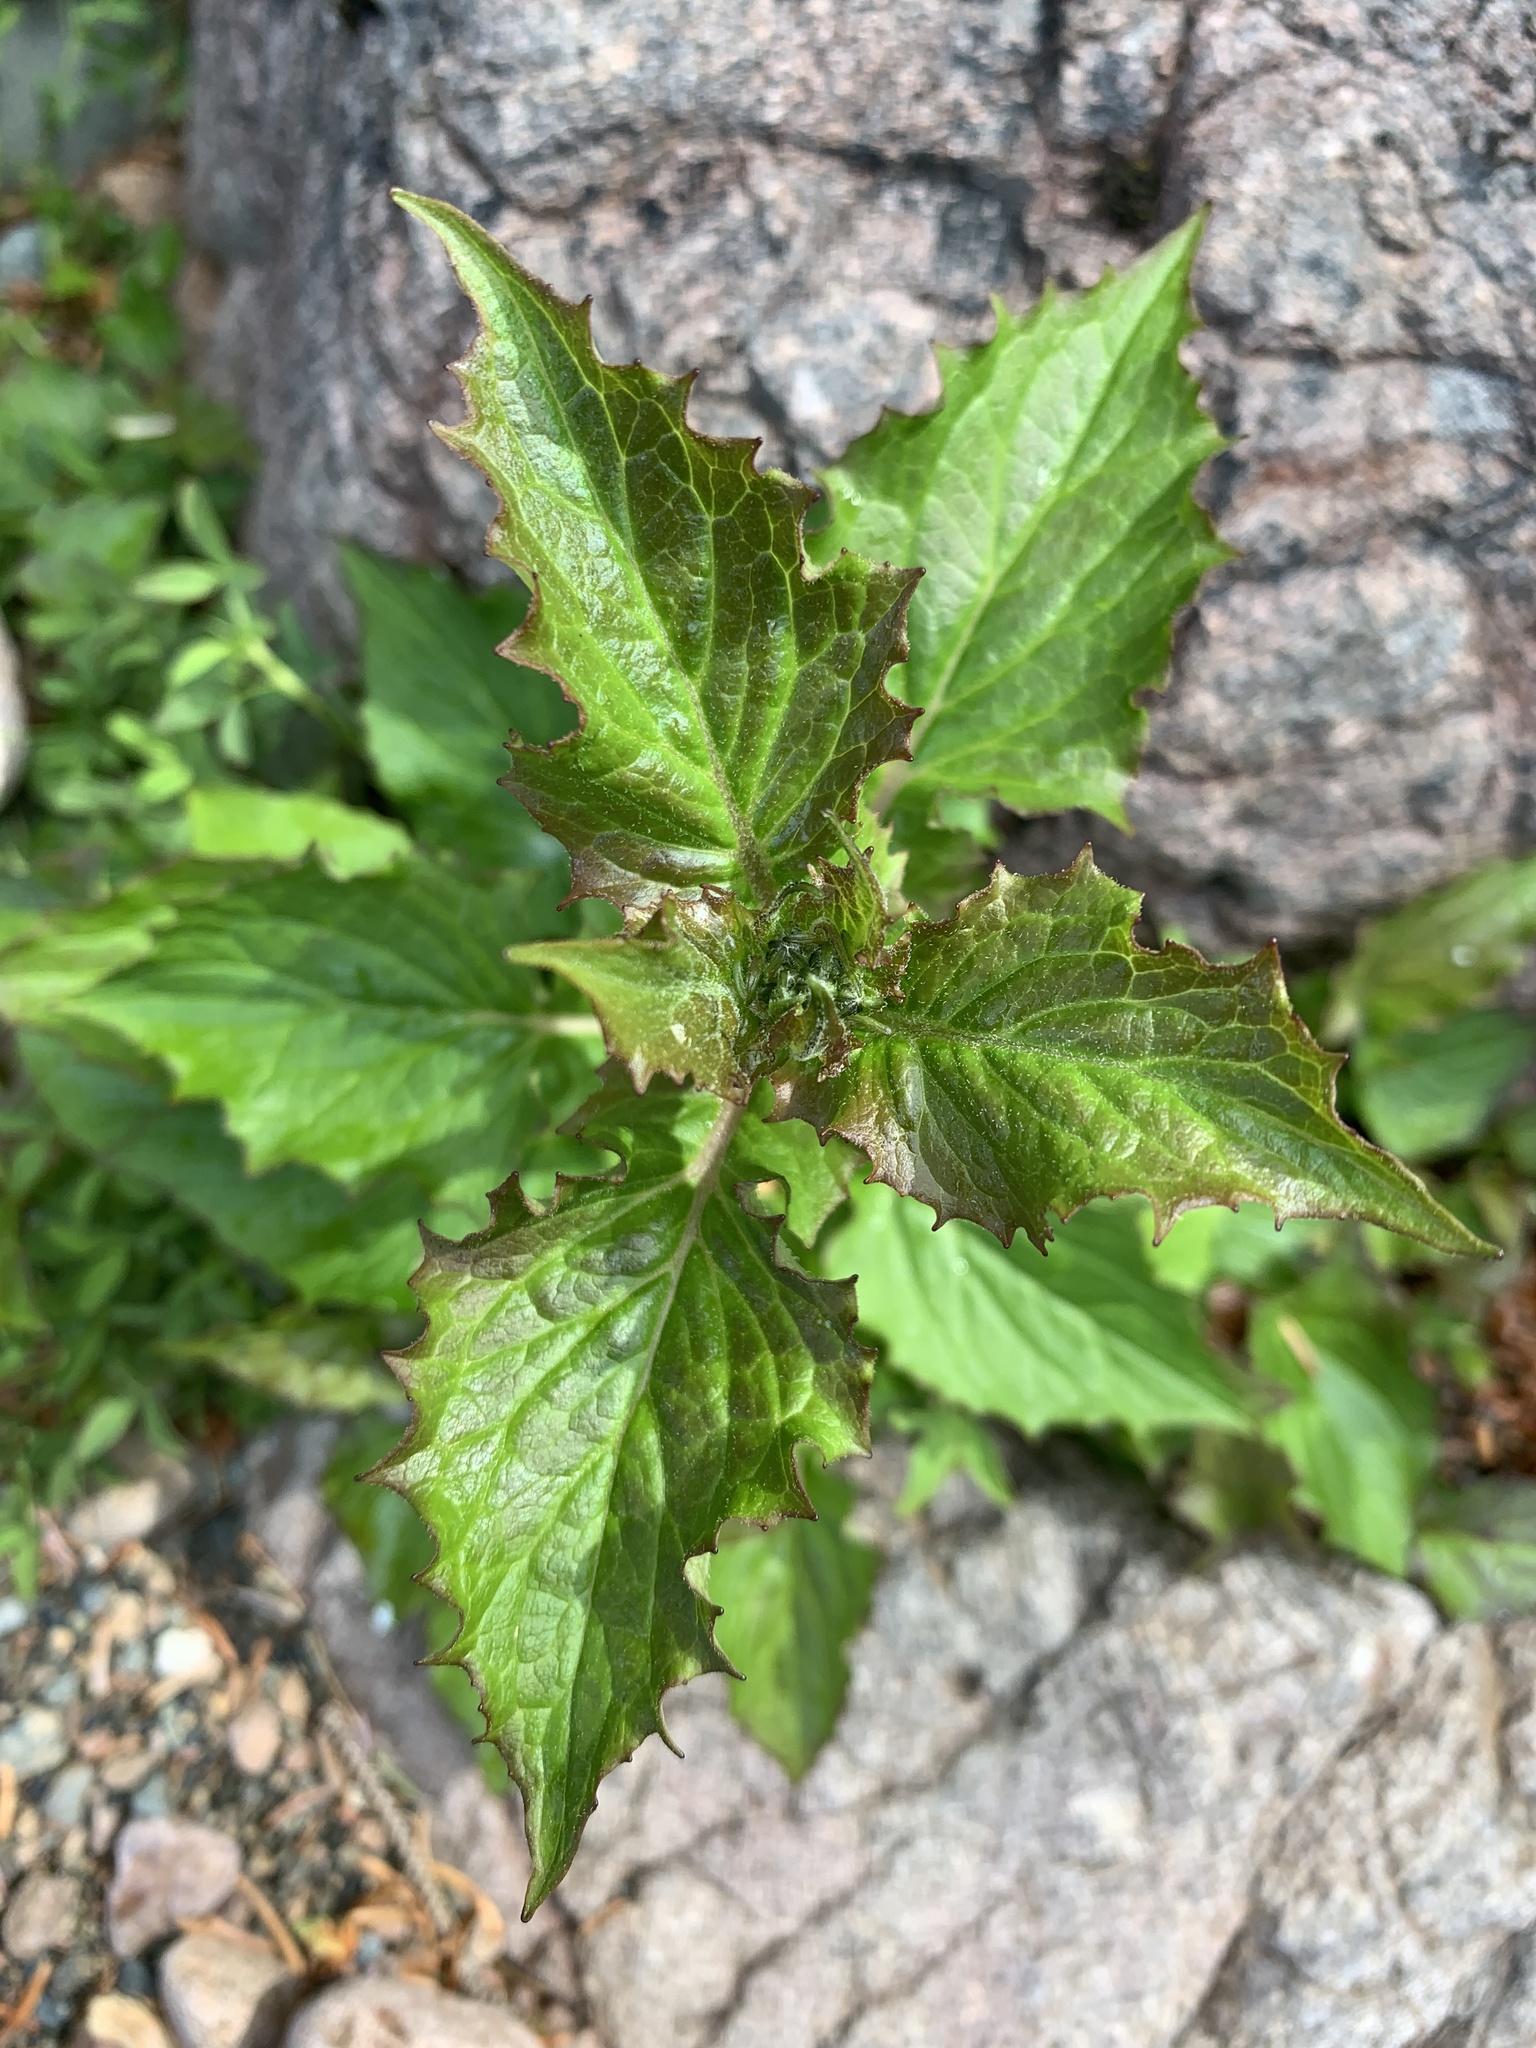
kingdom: Plantae
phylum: Tracheophyta
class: Magnoliopsida
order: Asterales
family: Asteraceae
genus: Nabalus
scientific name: Nabalus hastatus
